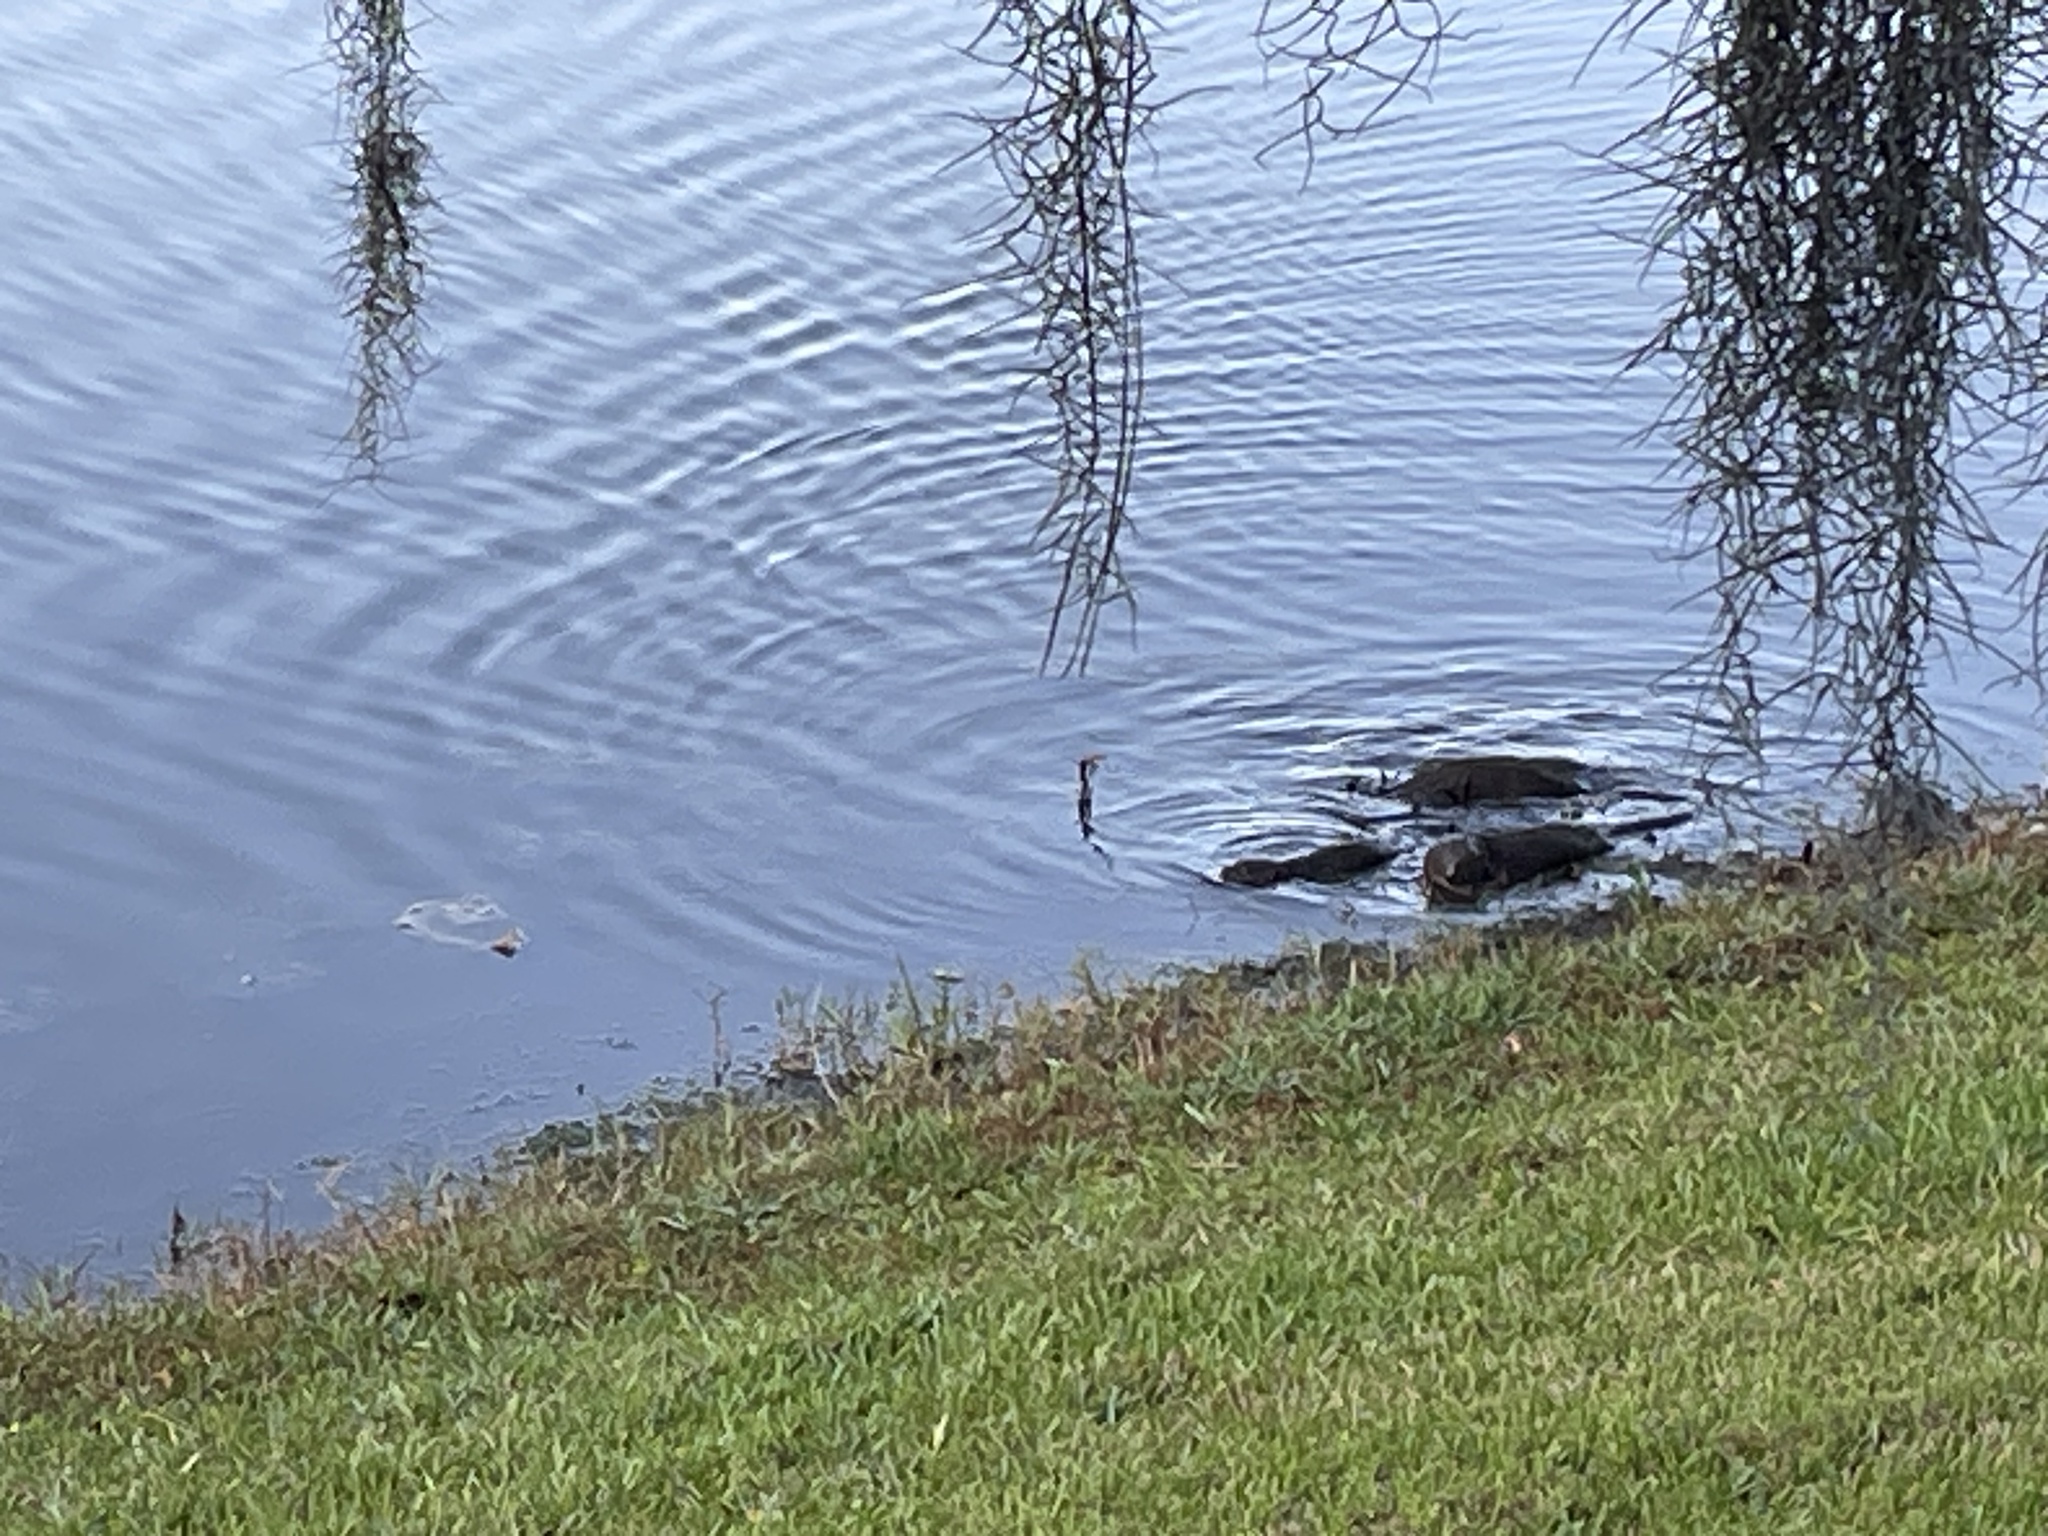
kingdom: Animalia
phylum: Chordata
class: Mammalia
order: Carnivora
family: Mustelidae
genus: Lontra
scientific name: Lontra canadensis
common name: North american river otter
